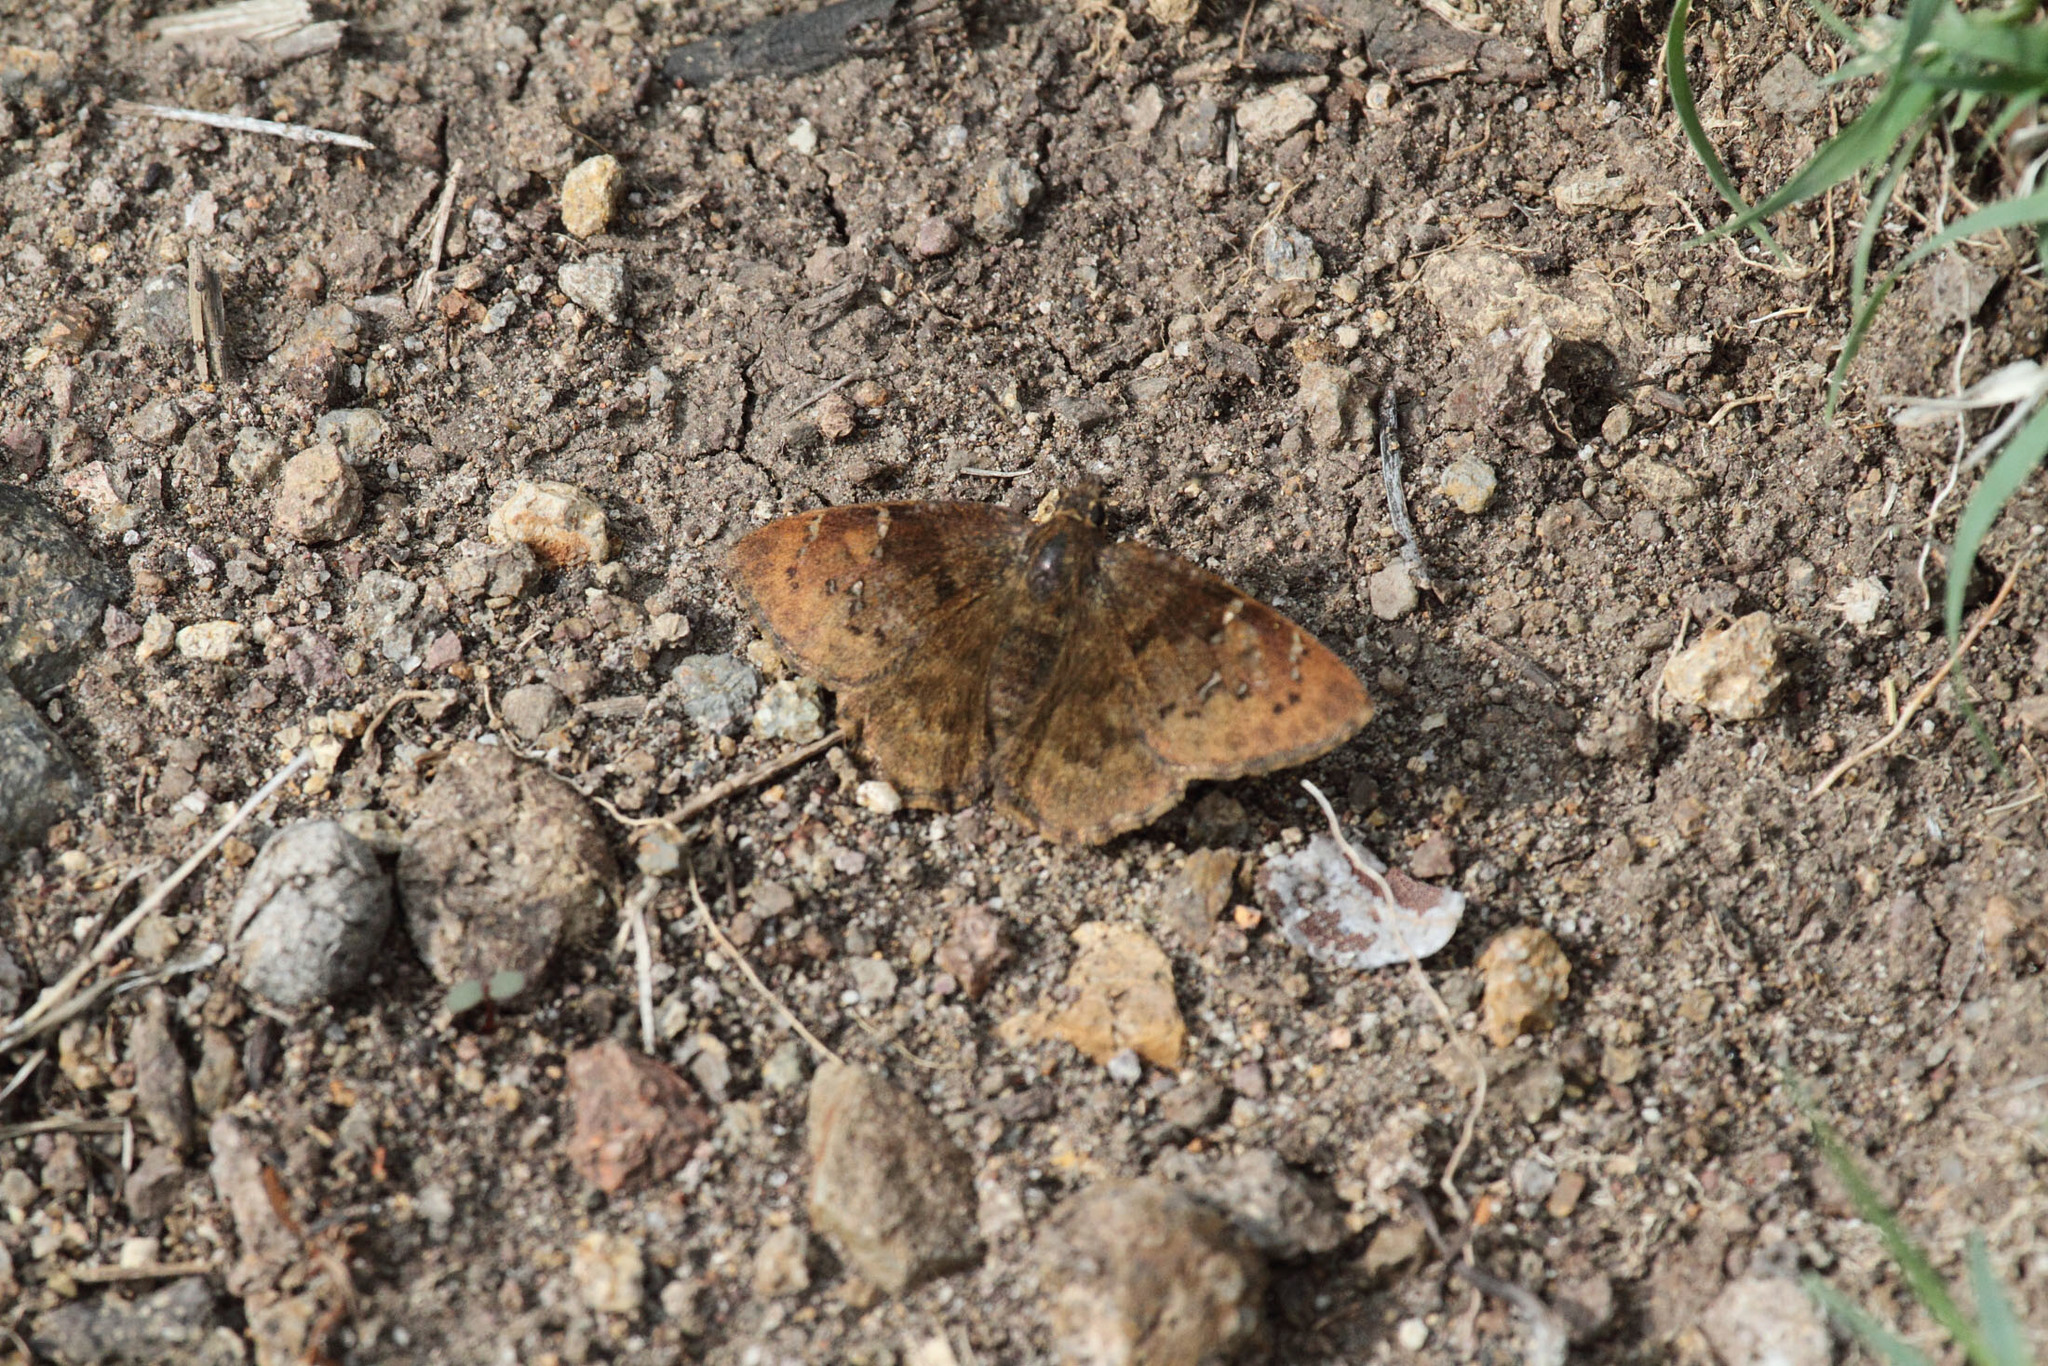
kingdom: Animalia
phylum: Arthropoda
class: Insecta
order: Lepidoptera
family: Hesperiidae
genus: Typhedanus
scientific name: Typhedanus aventinus
